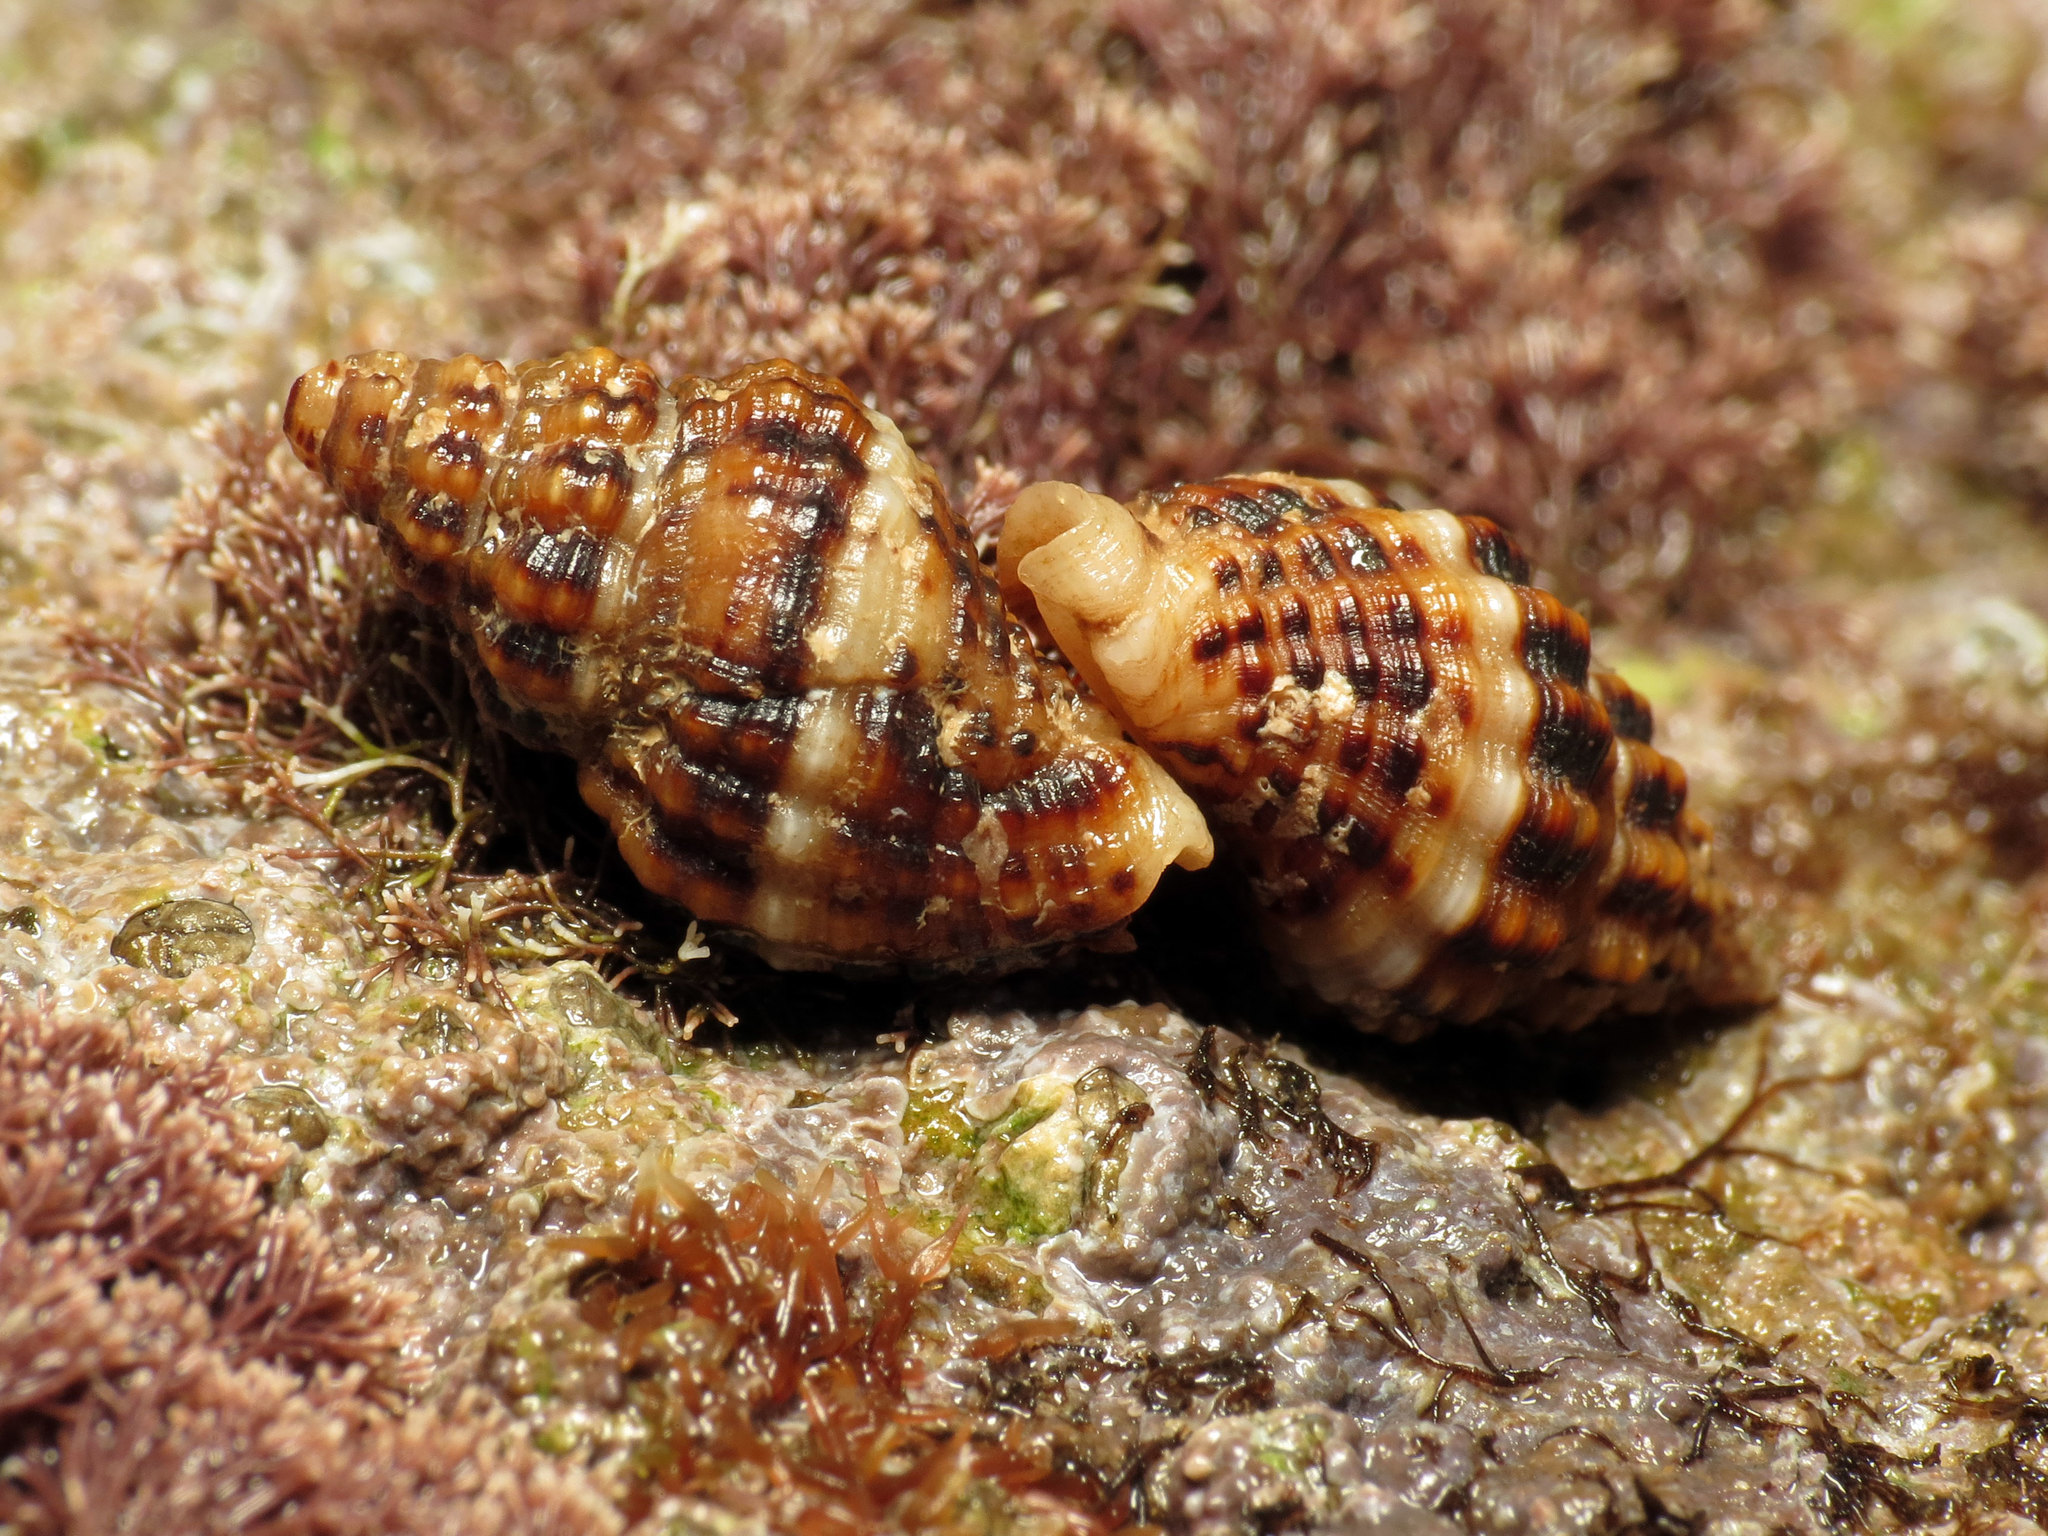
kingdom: Animalia
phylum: Mollusca
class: Gastropoda
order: Neogastropoda
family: Pisaniidae
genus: Aplus
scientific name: Aplus dorbignyi
